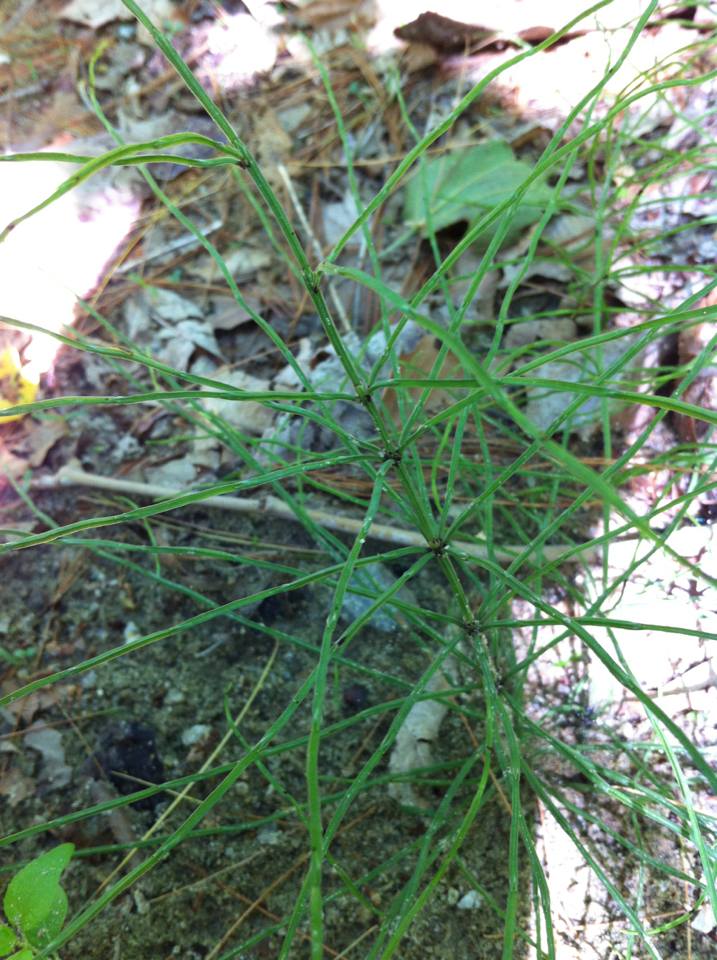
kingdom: Plantae
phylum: Tracheophyta
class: Polypodiopsida
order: Equisetales
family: Equisetaceae
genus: Equisetum
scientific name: Equisetum arvense
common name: Field horsetail
